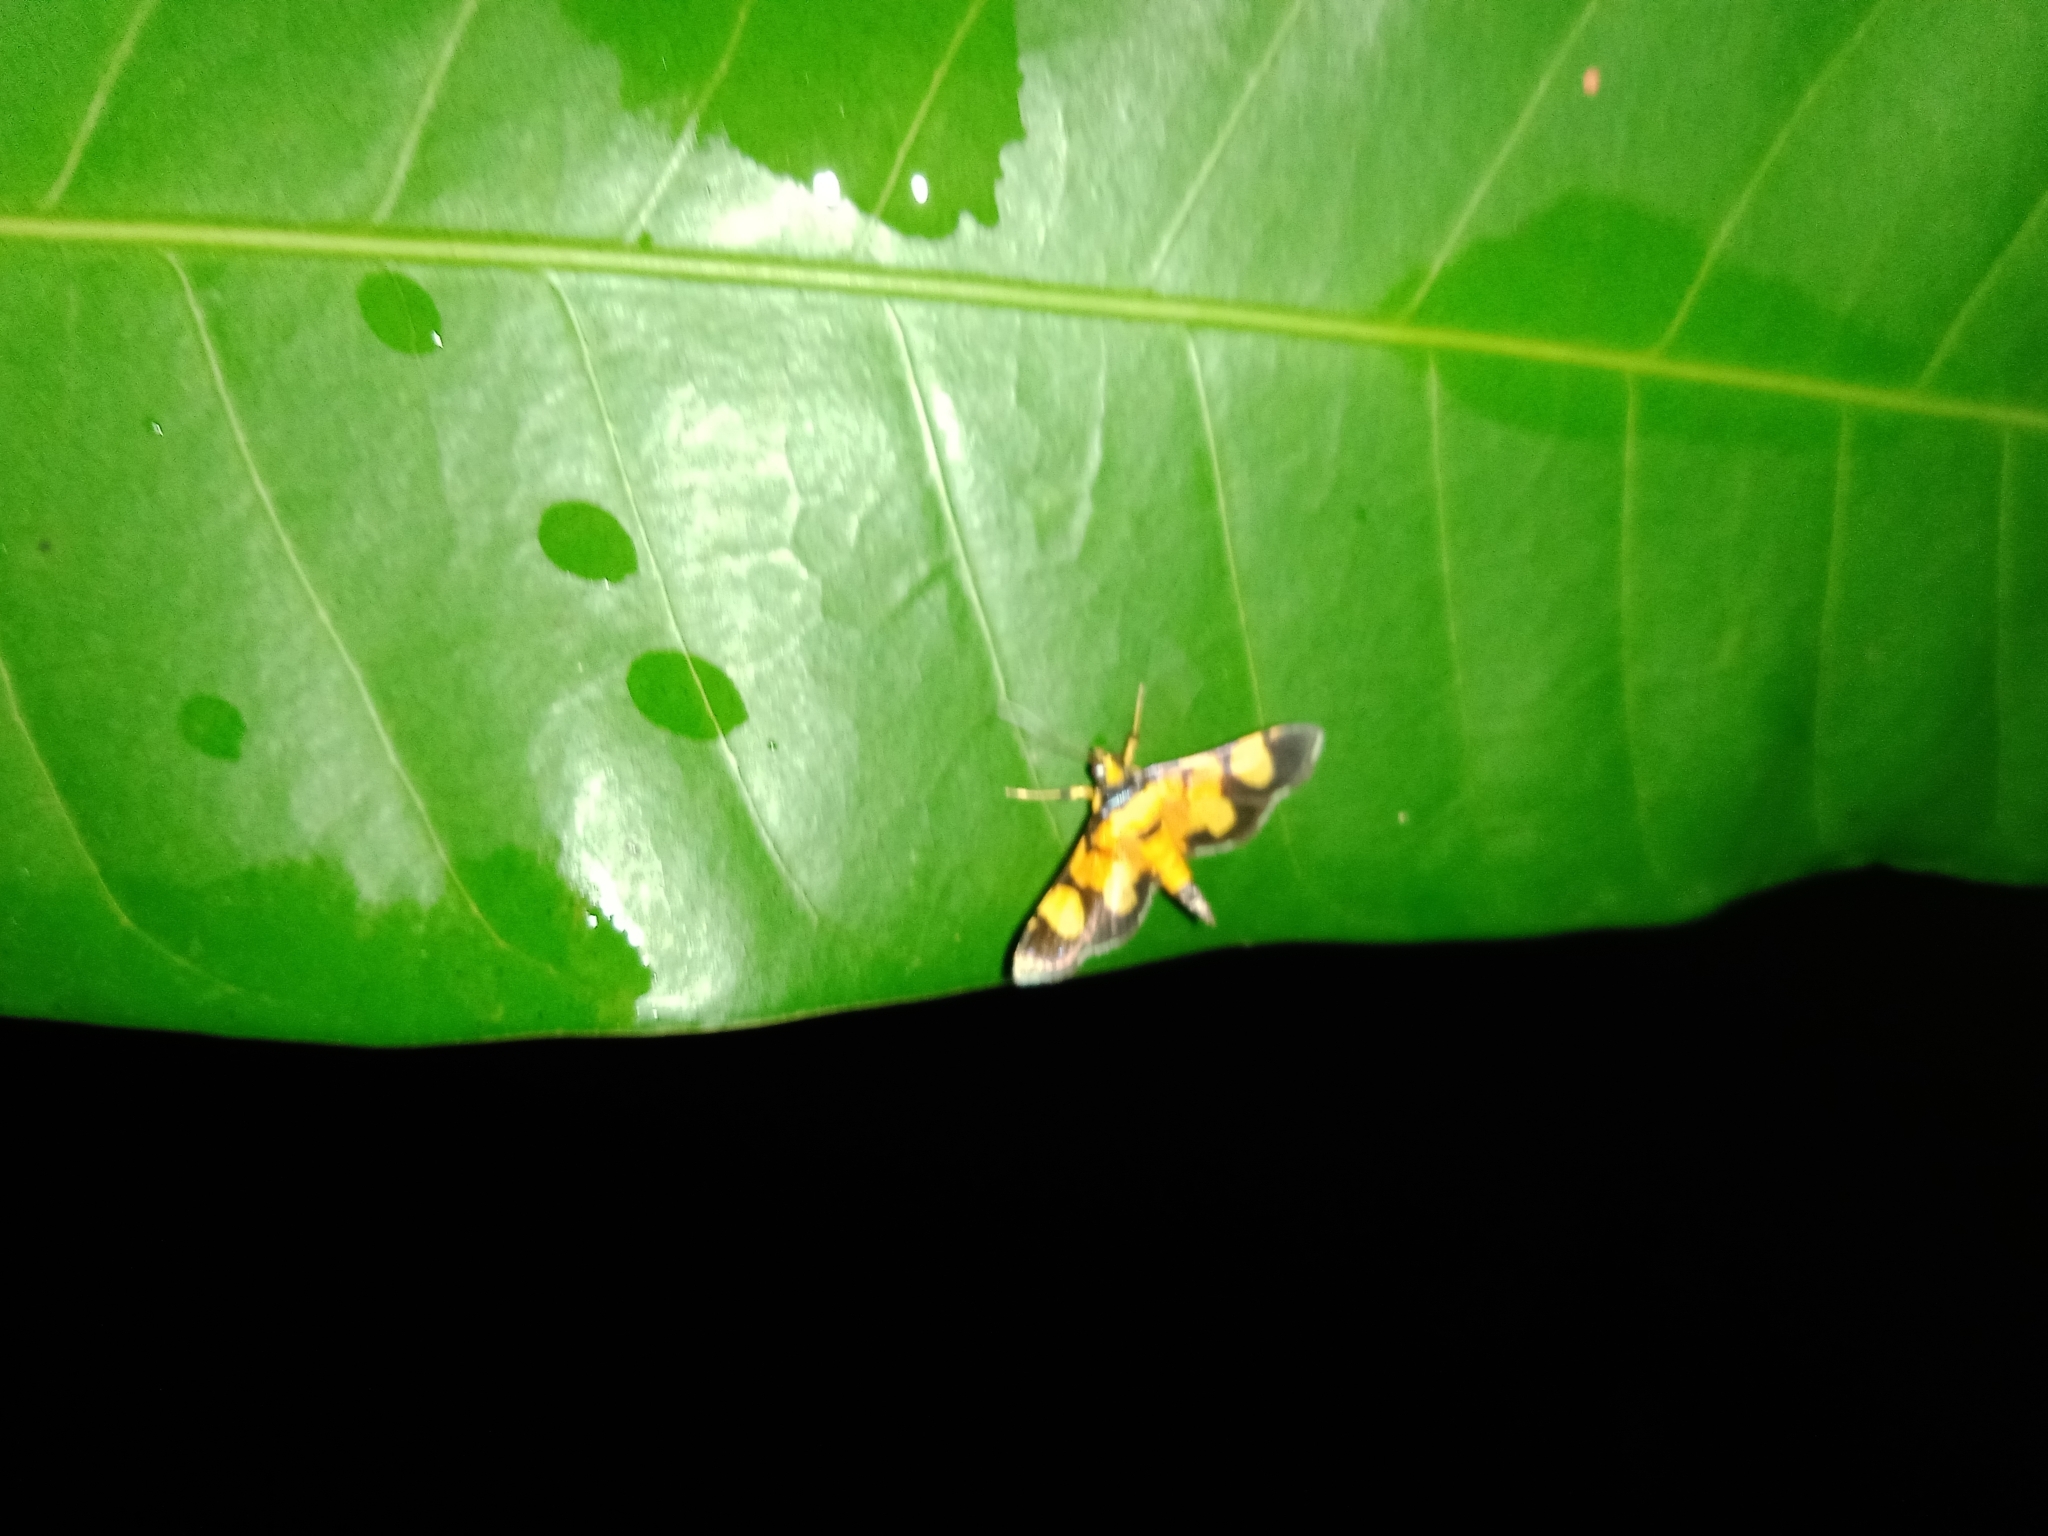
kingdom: Animalia
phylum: Arthropoda
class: Insecta
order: Lepidoptera
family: Crambidae
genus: Aethaloessa
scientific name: Aethaloessa calidalis
